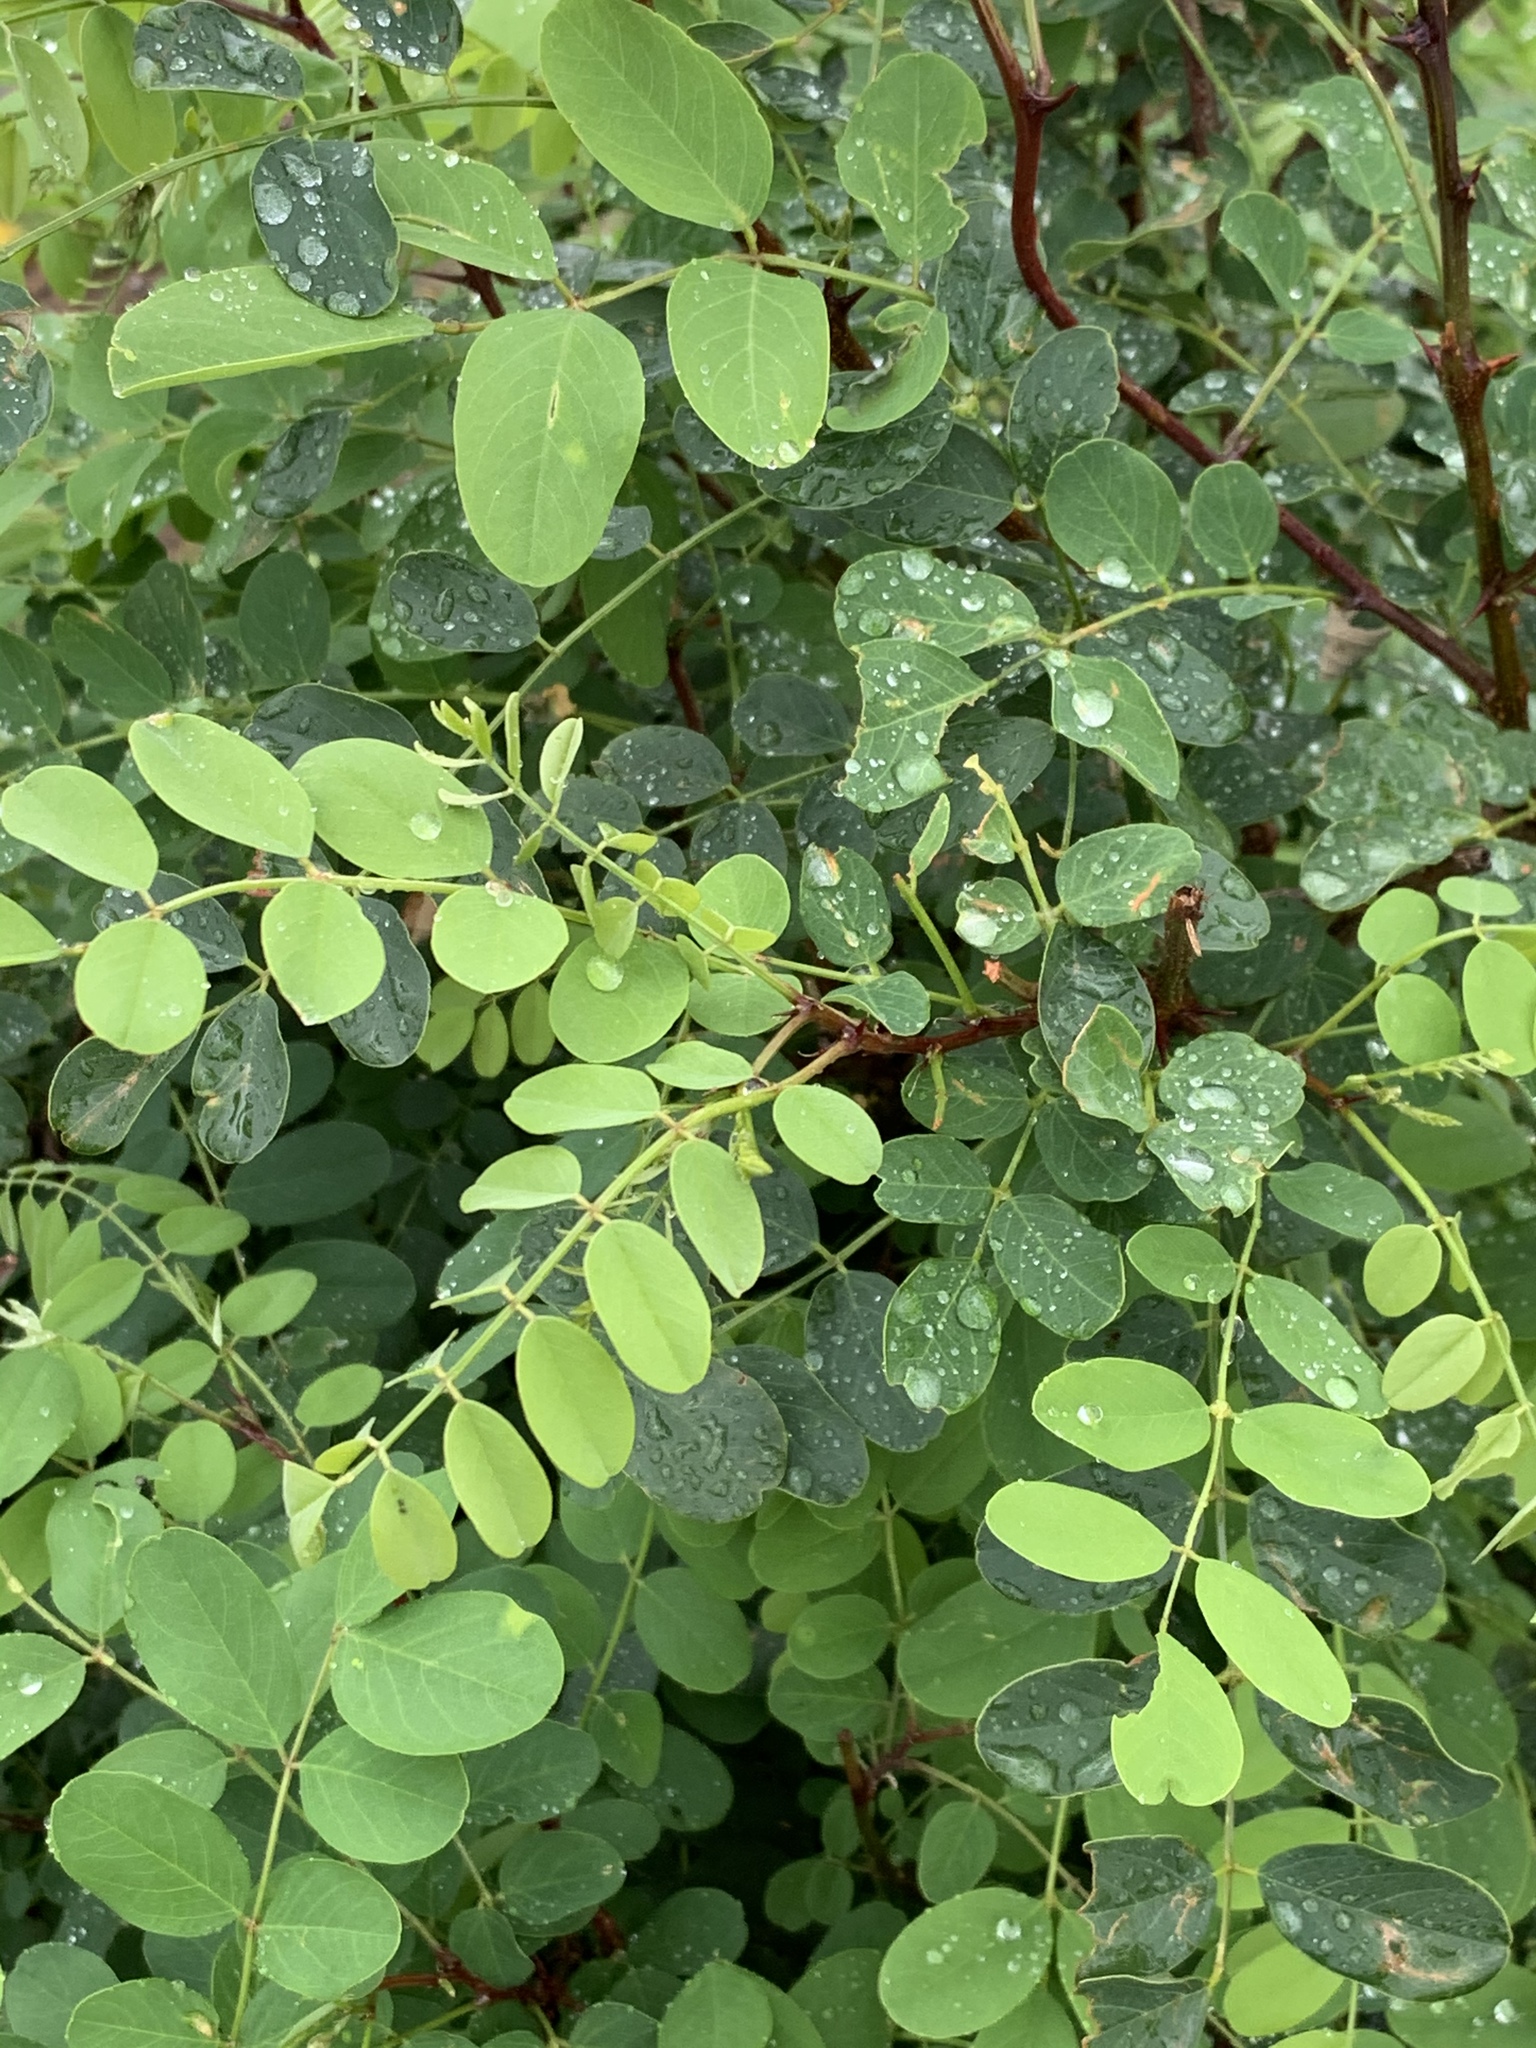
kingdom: Plantae
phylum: Tracheophyta
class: Magnoliopsida
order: Fabales
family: Fabaceae
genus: Robinia
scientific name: Robinia pseudoacacia
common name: Black locust
